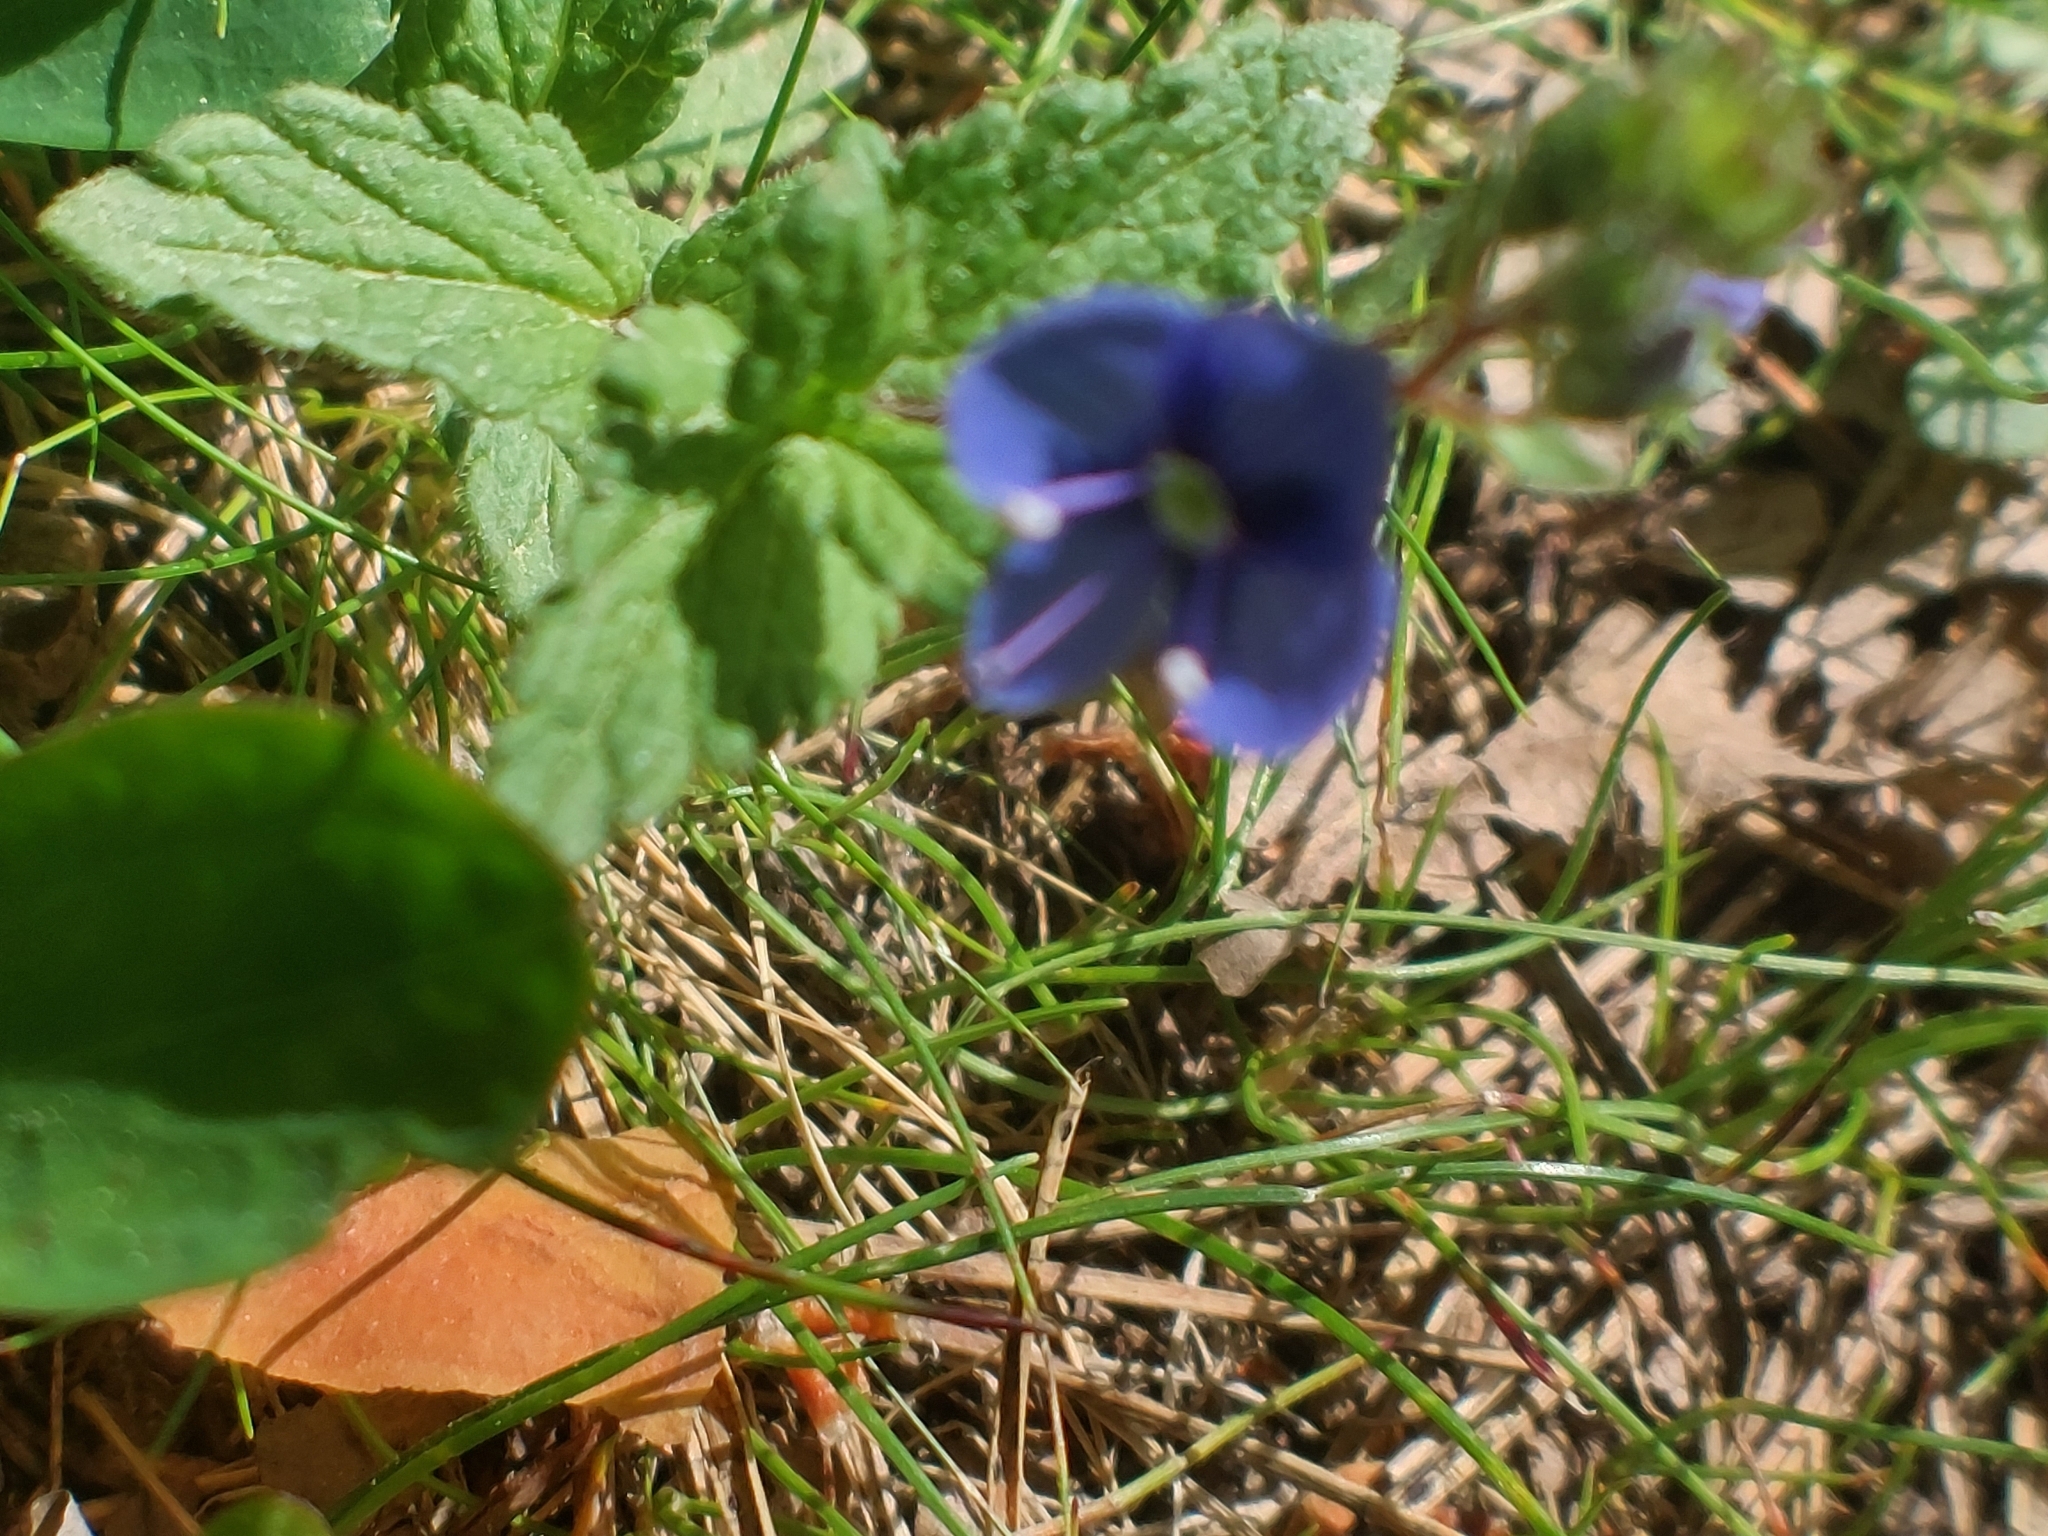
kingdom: Plantae
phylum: Tracheophyta
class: Magnoliopsida
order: Lamiales
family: Plantaginaceae
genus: Veronica
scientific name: Veronica chamaedrys
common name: Germander speedwell
